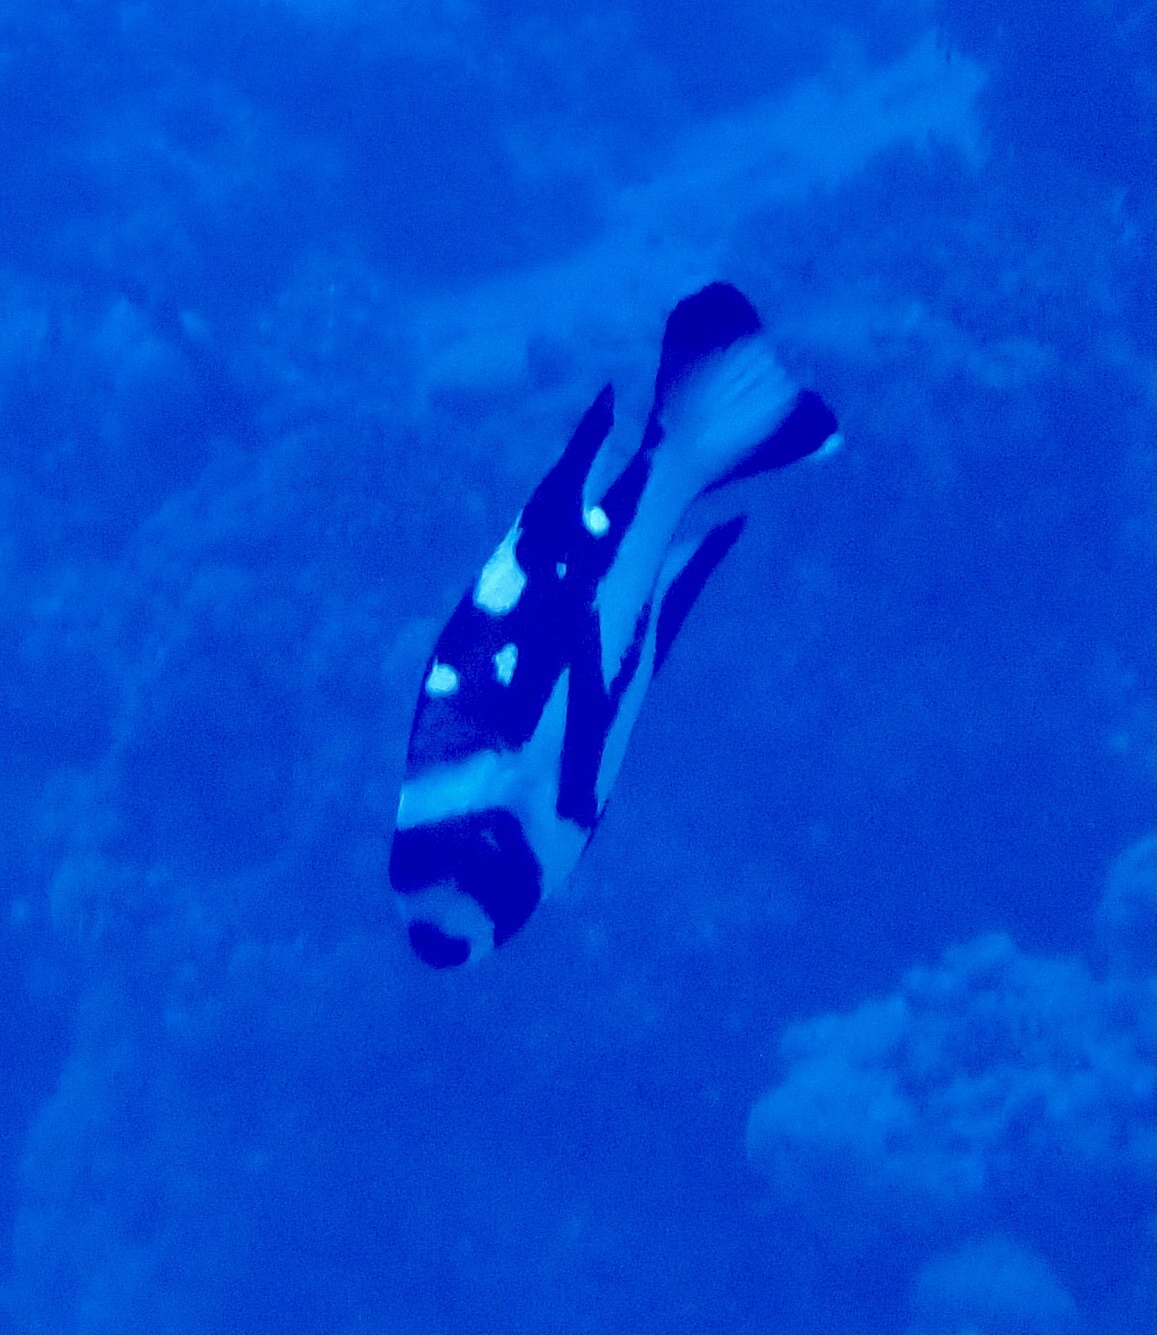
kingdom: Animalia
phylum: Chordata
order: Perciformes
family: Lutjanidae
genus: Macolor
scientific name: Macolor niger
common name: Black snapper
